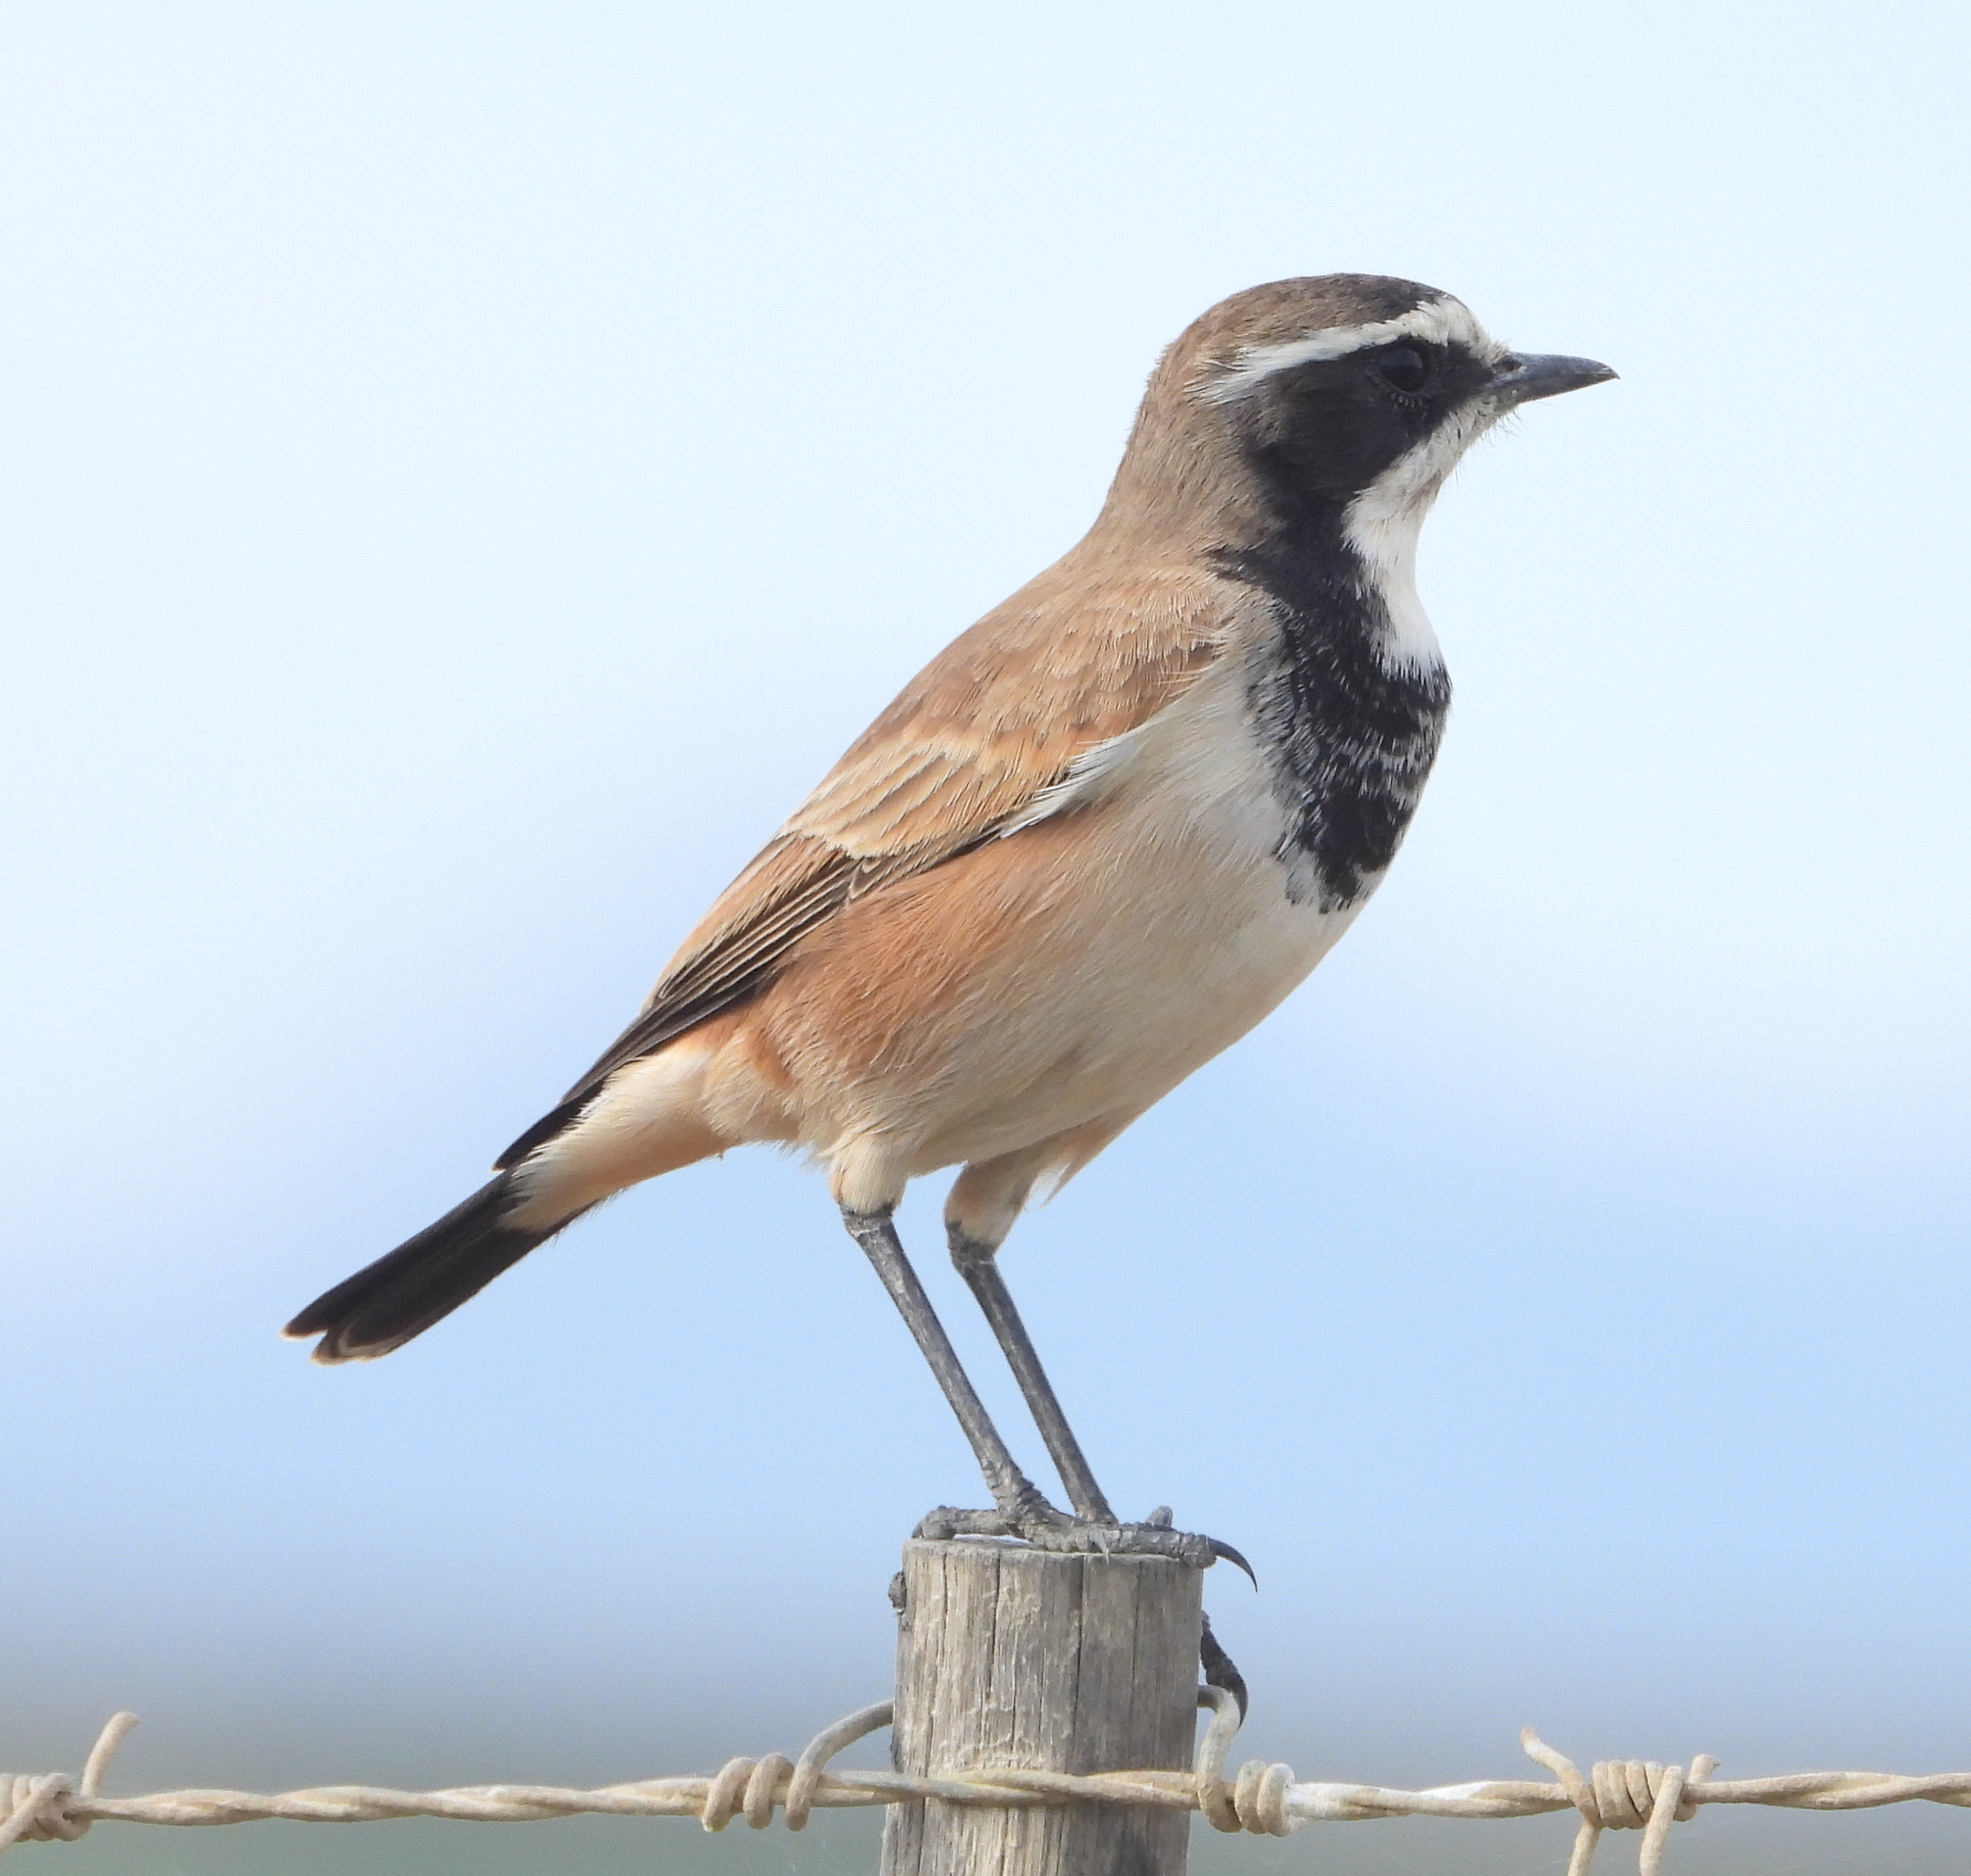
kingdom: Animalia
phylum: Chordata
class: Aves
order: Passeriformes
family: Muscicapidae
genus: Oenanthe
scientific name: Oenanthe pileata
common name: Capped wheatear
